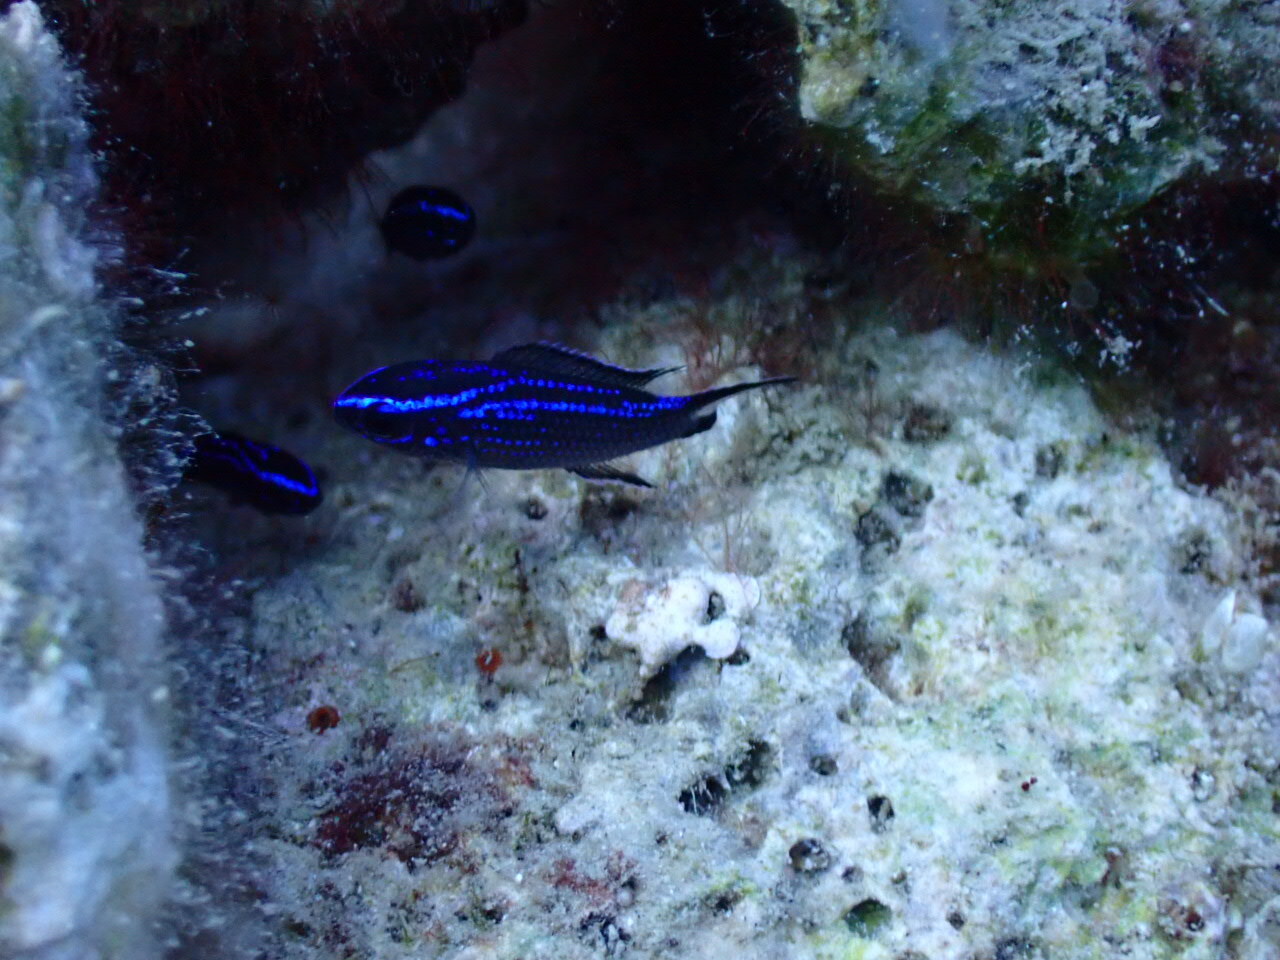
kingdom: Animalia
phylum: Chordata
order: Perciformes
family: Pomacentridae
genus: Chromis
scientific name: Chromis chromis
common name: Damselfish
